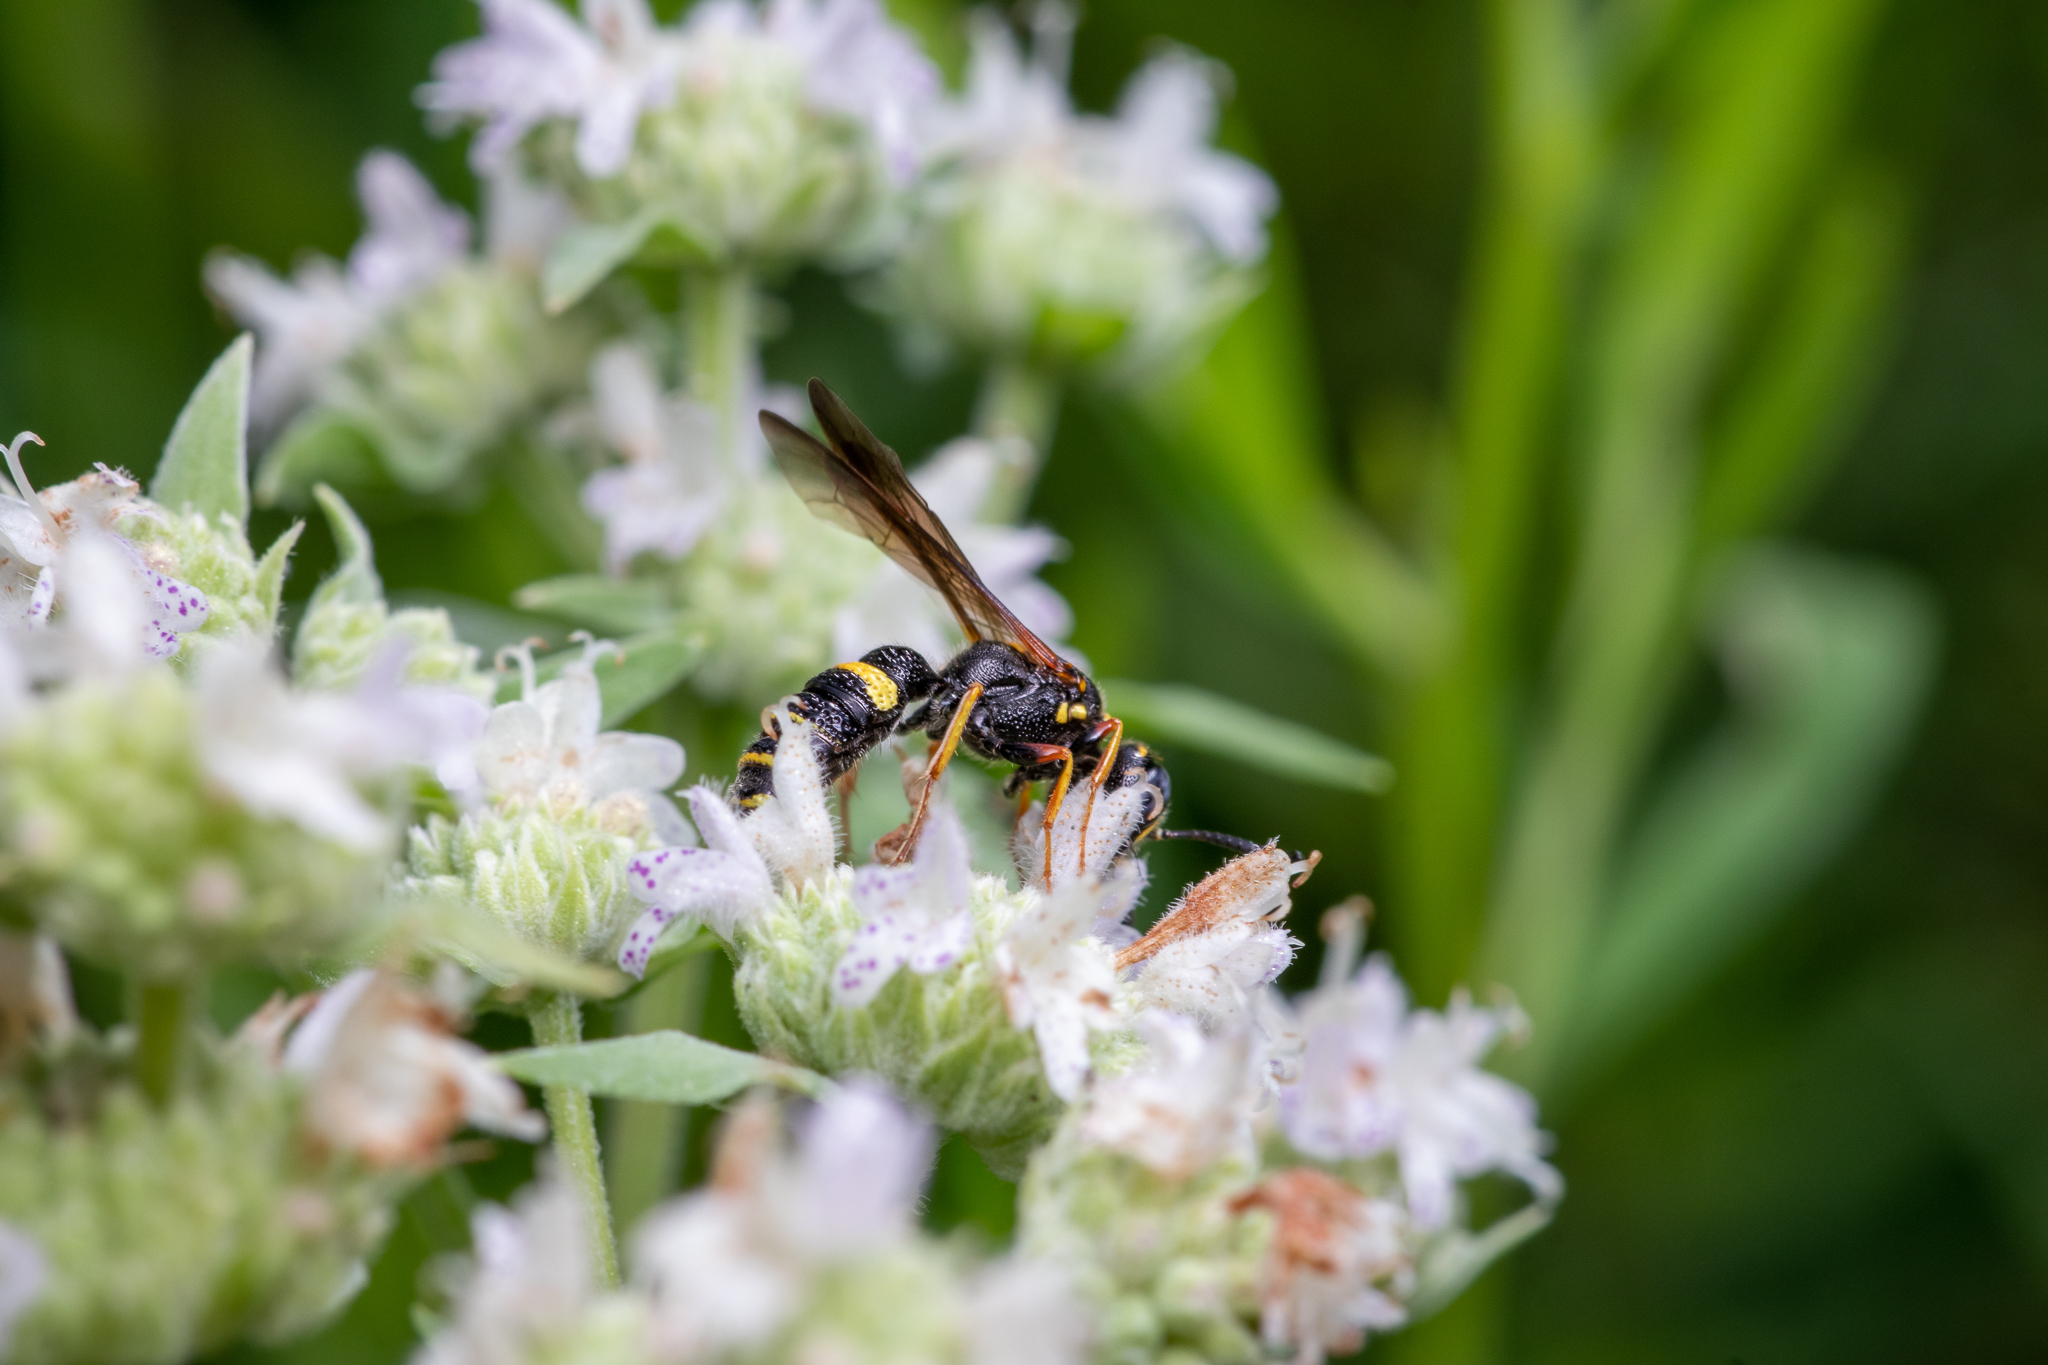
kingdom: Animalia
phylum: Arthropoda
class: Insecta
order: Hymenoptera
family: Crabronidae
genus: Philanthus
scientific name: Philanthus gibbosus
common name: Humped beewolf
